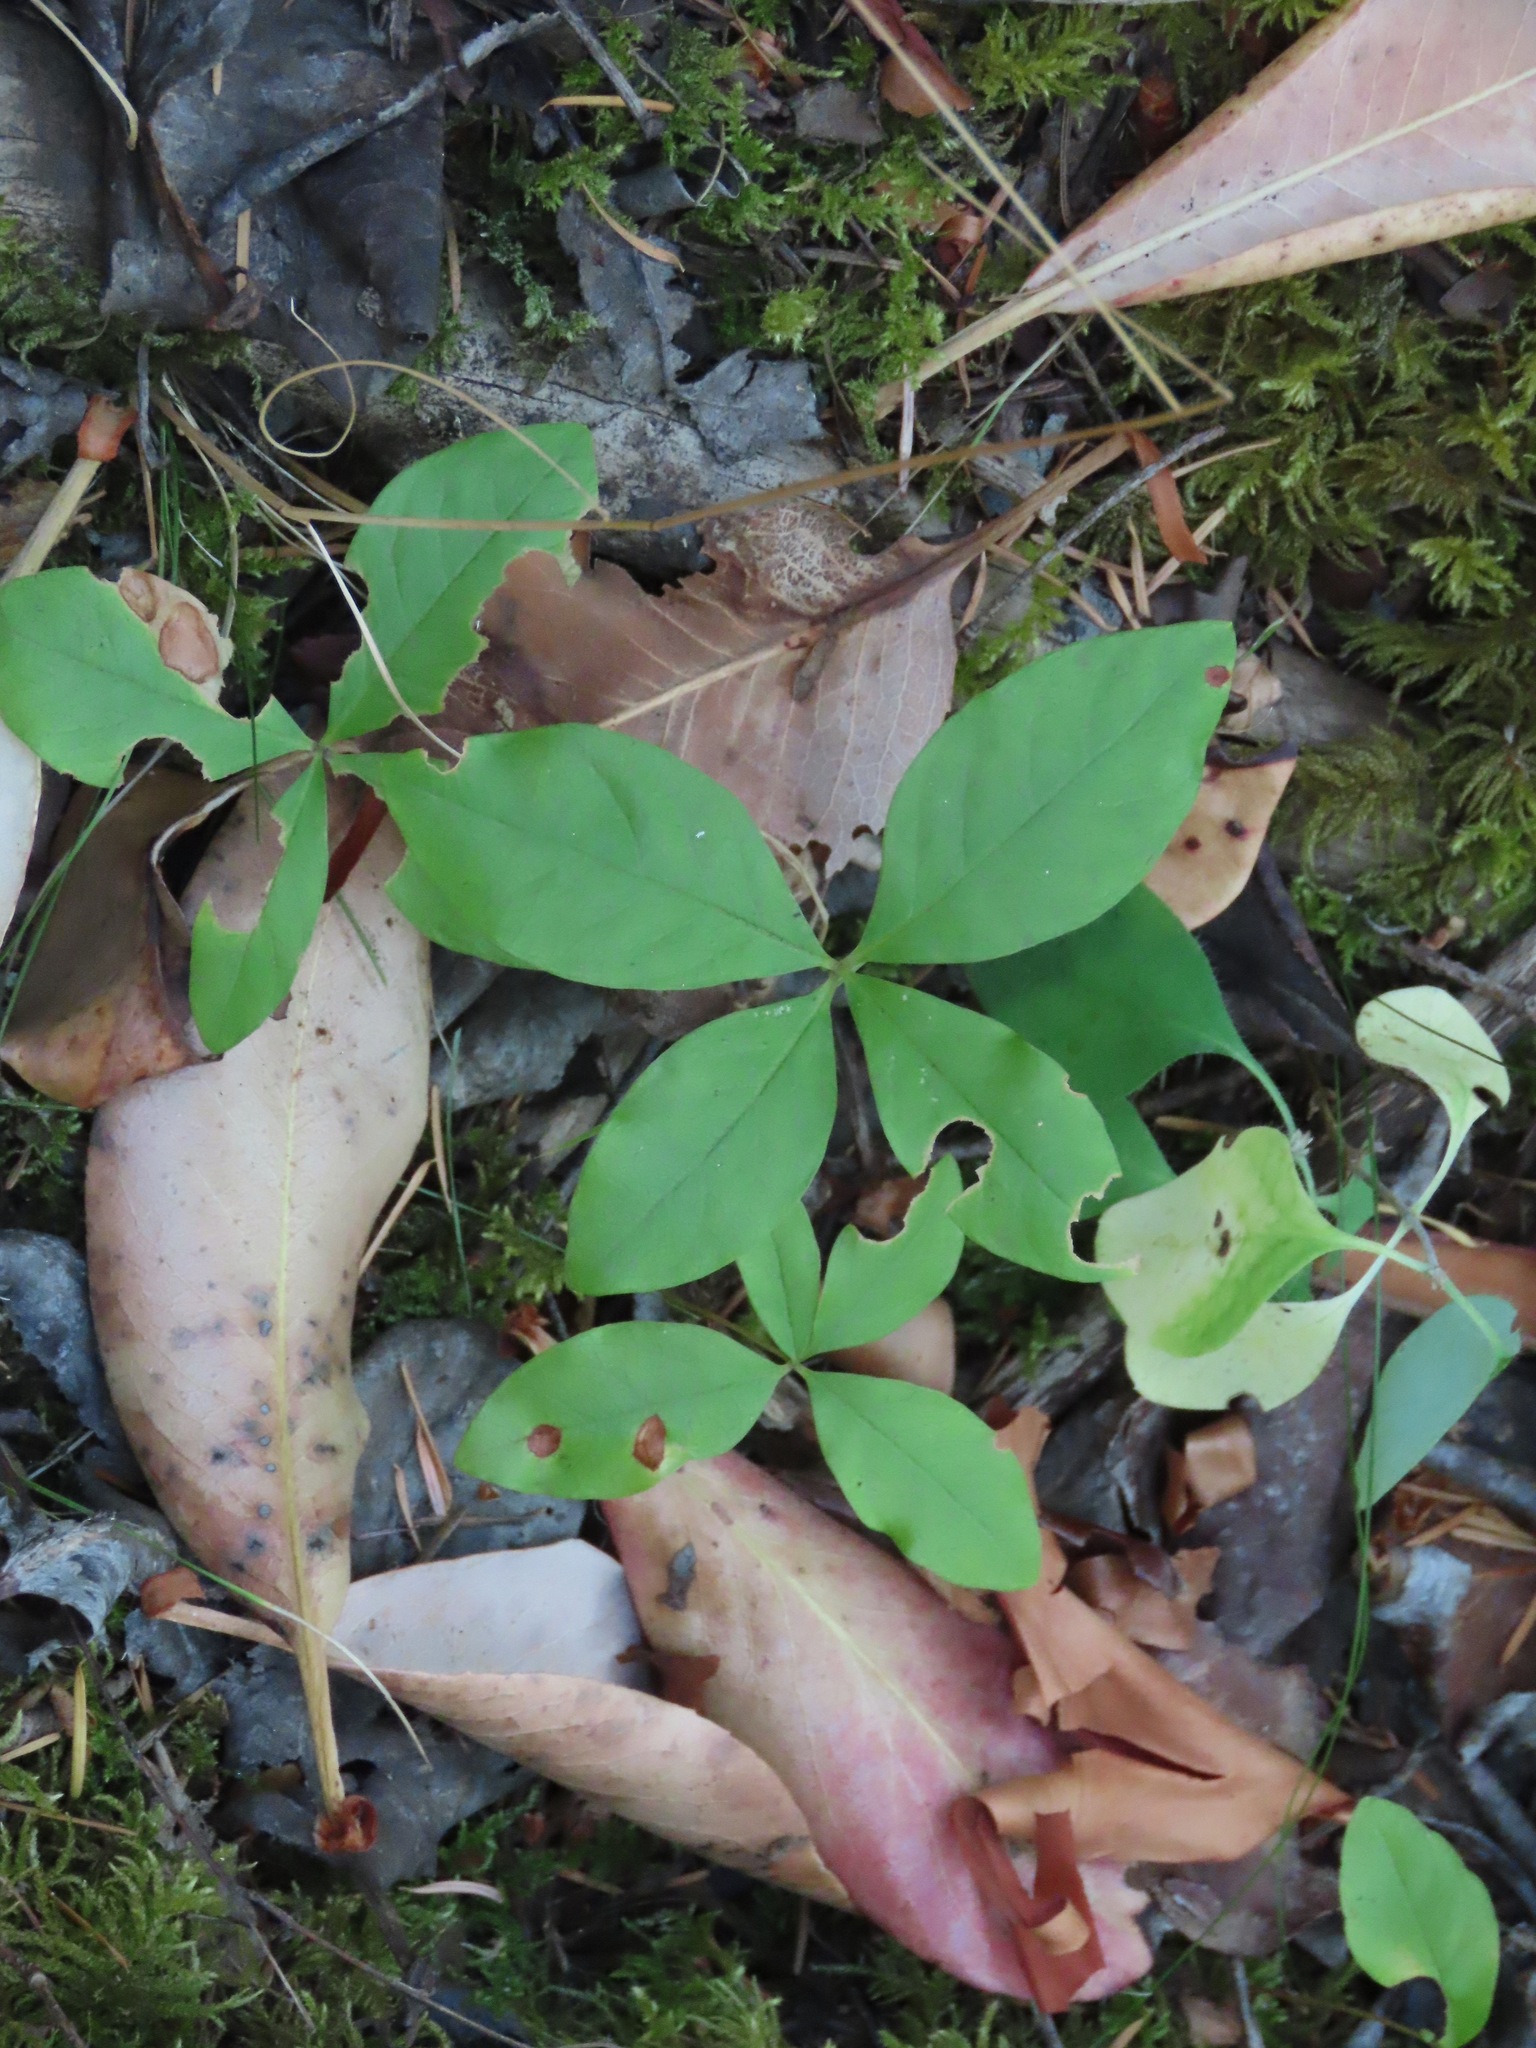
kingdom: Plantae
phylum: Tracheophyta
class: Magnoliopsida
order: Ericales
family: Primulaceae
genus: Lysimachia
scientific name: Lysimachia latifolia
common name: Pacific starflower
